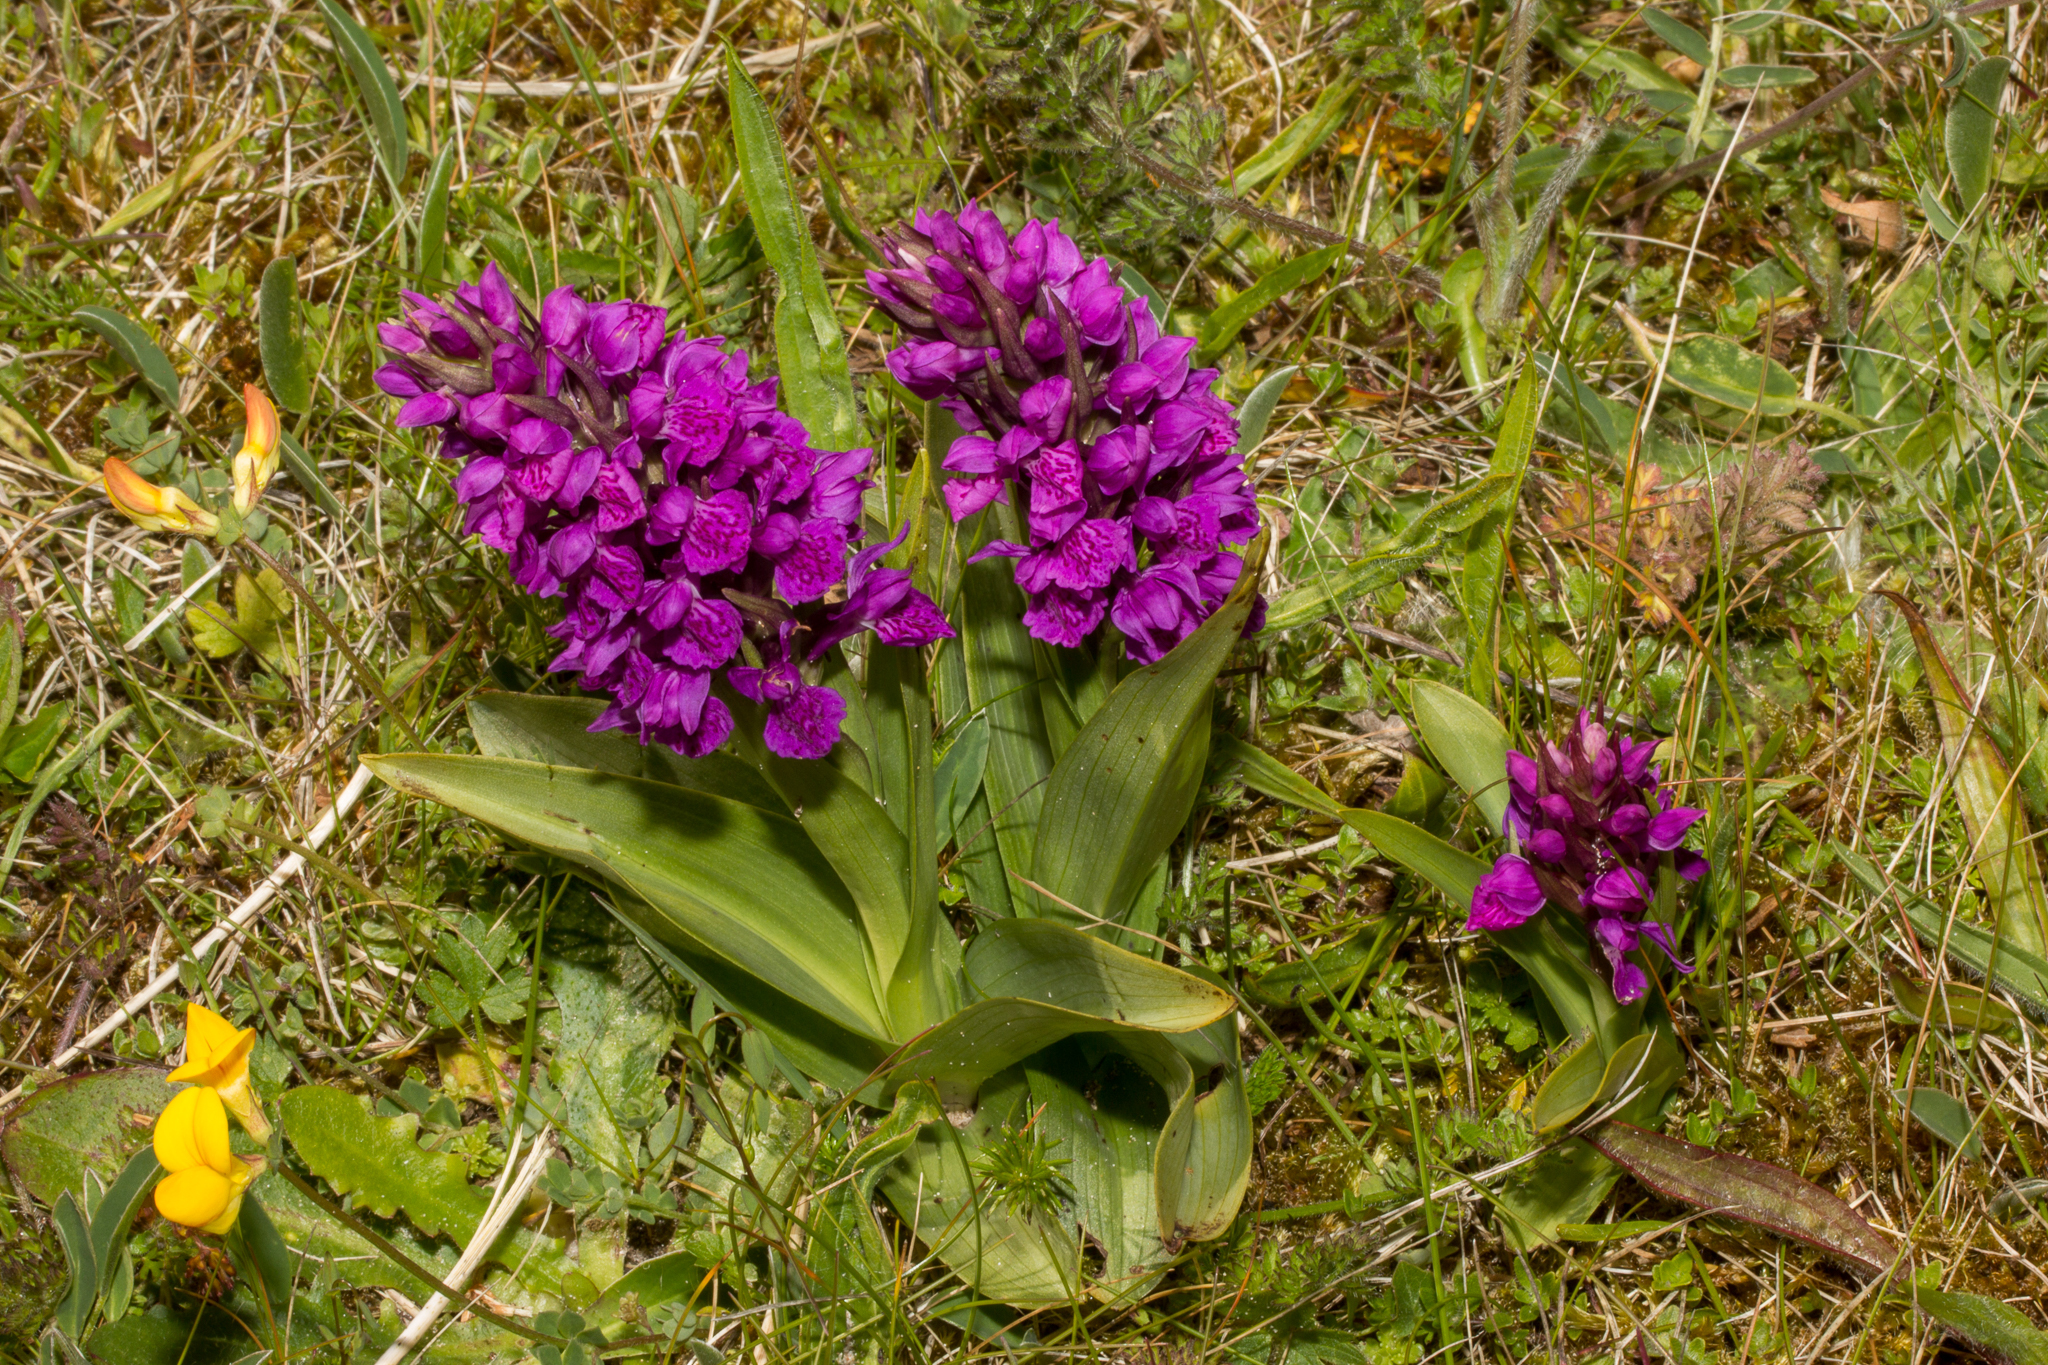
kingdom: Plantae
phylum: Tracheophyta
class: Liliopsida
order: Asparagales
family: Orchidaceae
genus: Dactylorhiza
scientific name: Dactylorhiza majalis
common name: Marsh orchid
